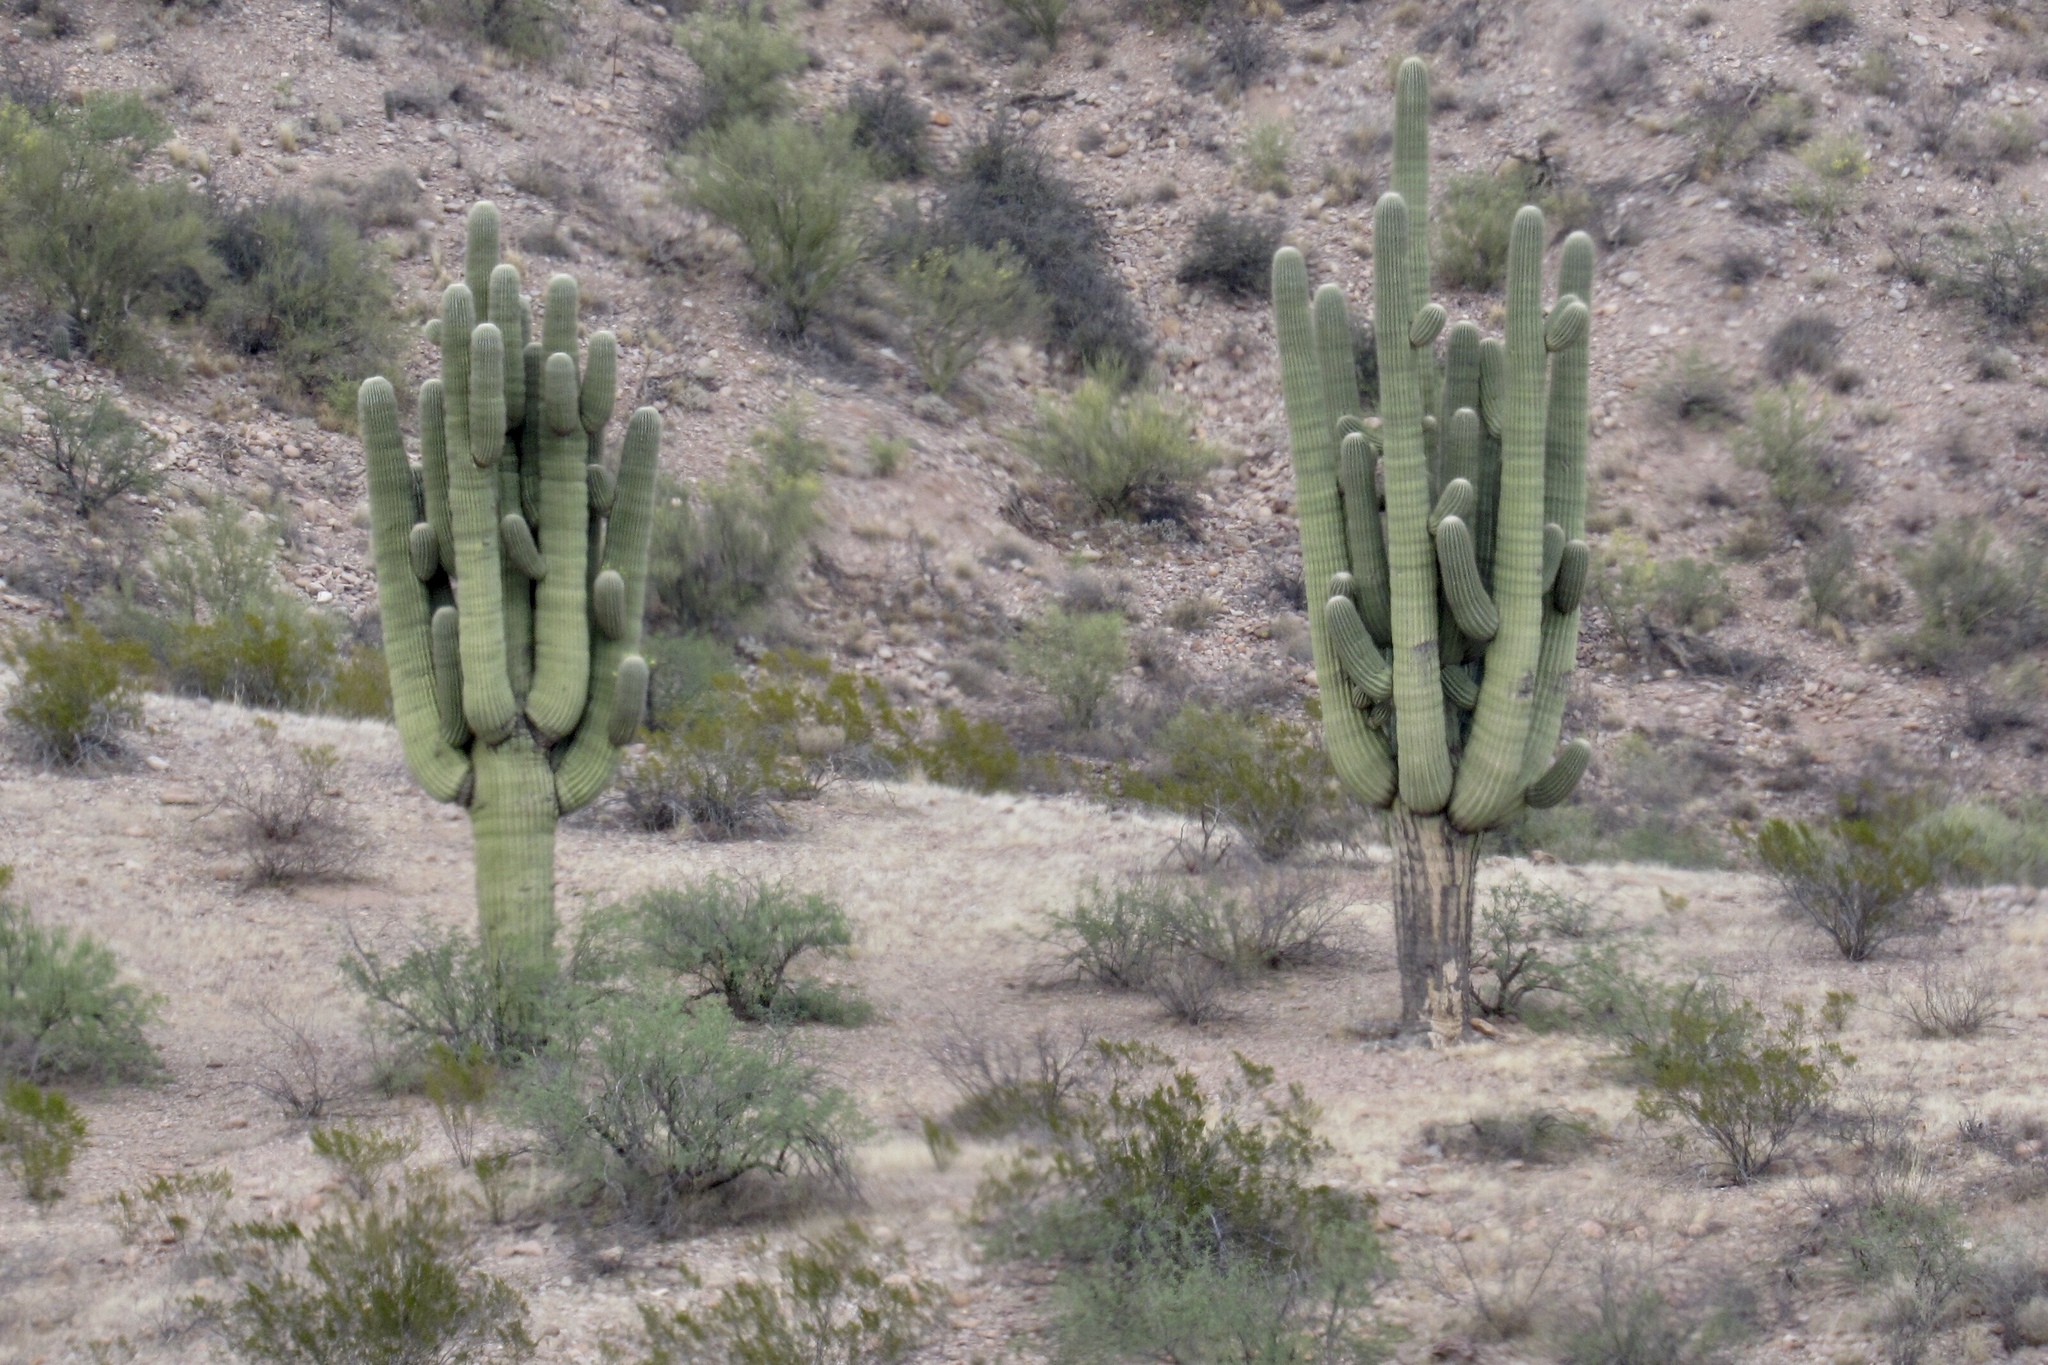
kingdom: Plantae
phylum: Tracheophyta
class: Magnoliopsida
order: Caryophyllales
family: Cactaceae
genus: Carnegiea
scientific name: Carnegiea gigantea
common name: Saguaro
